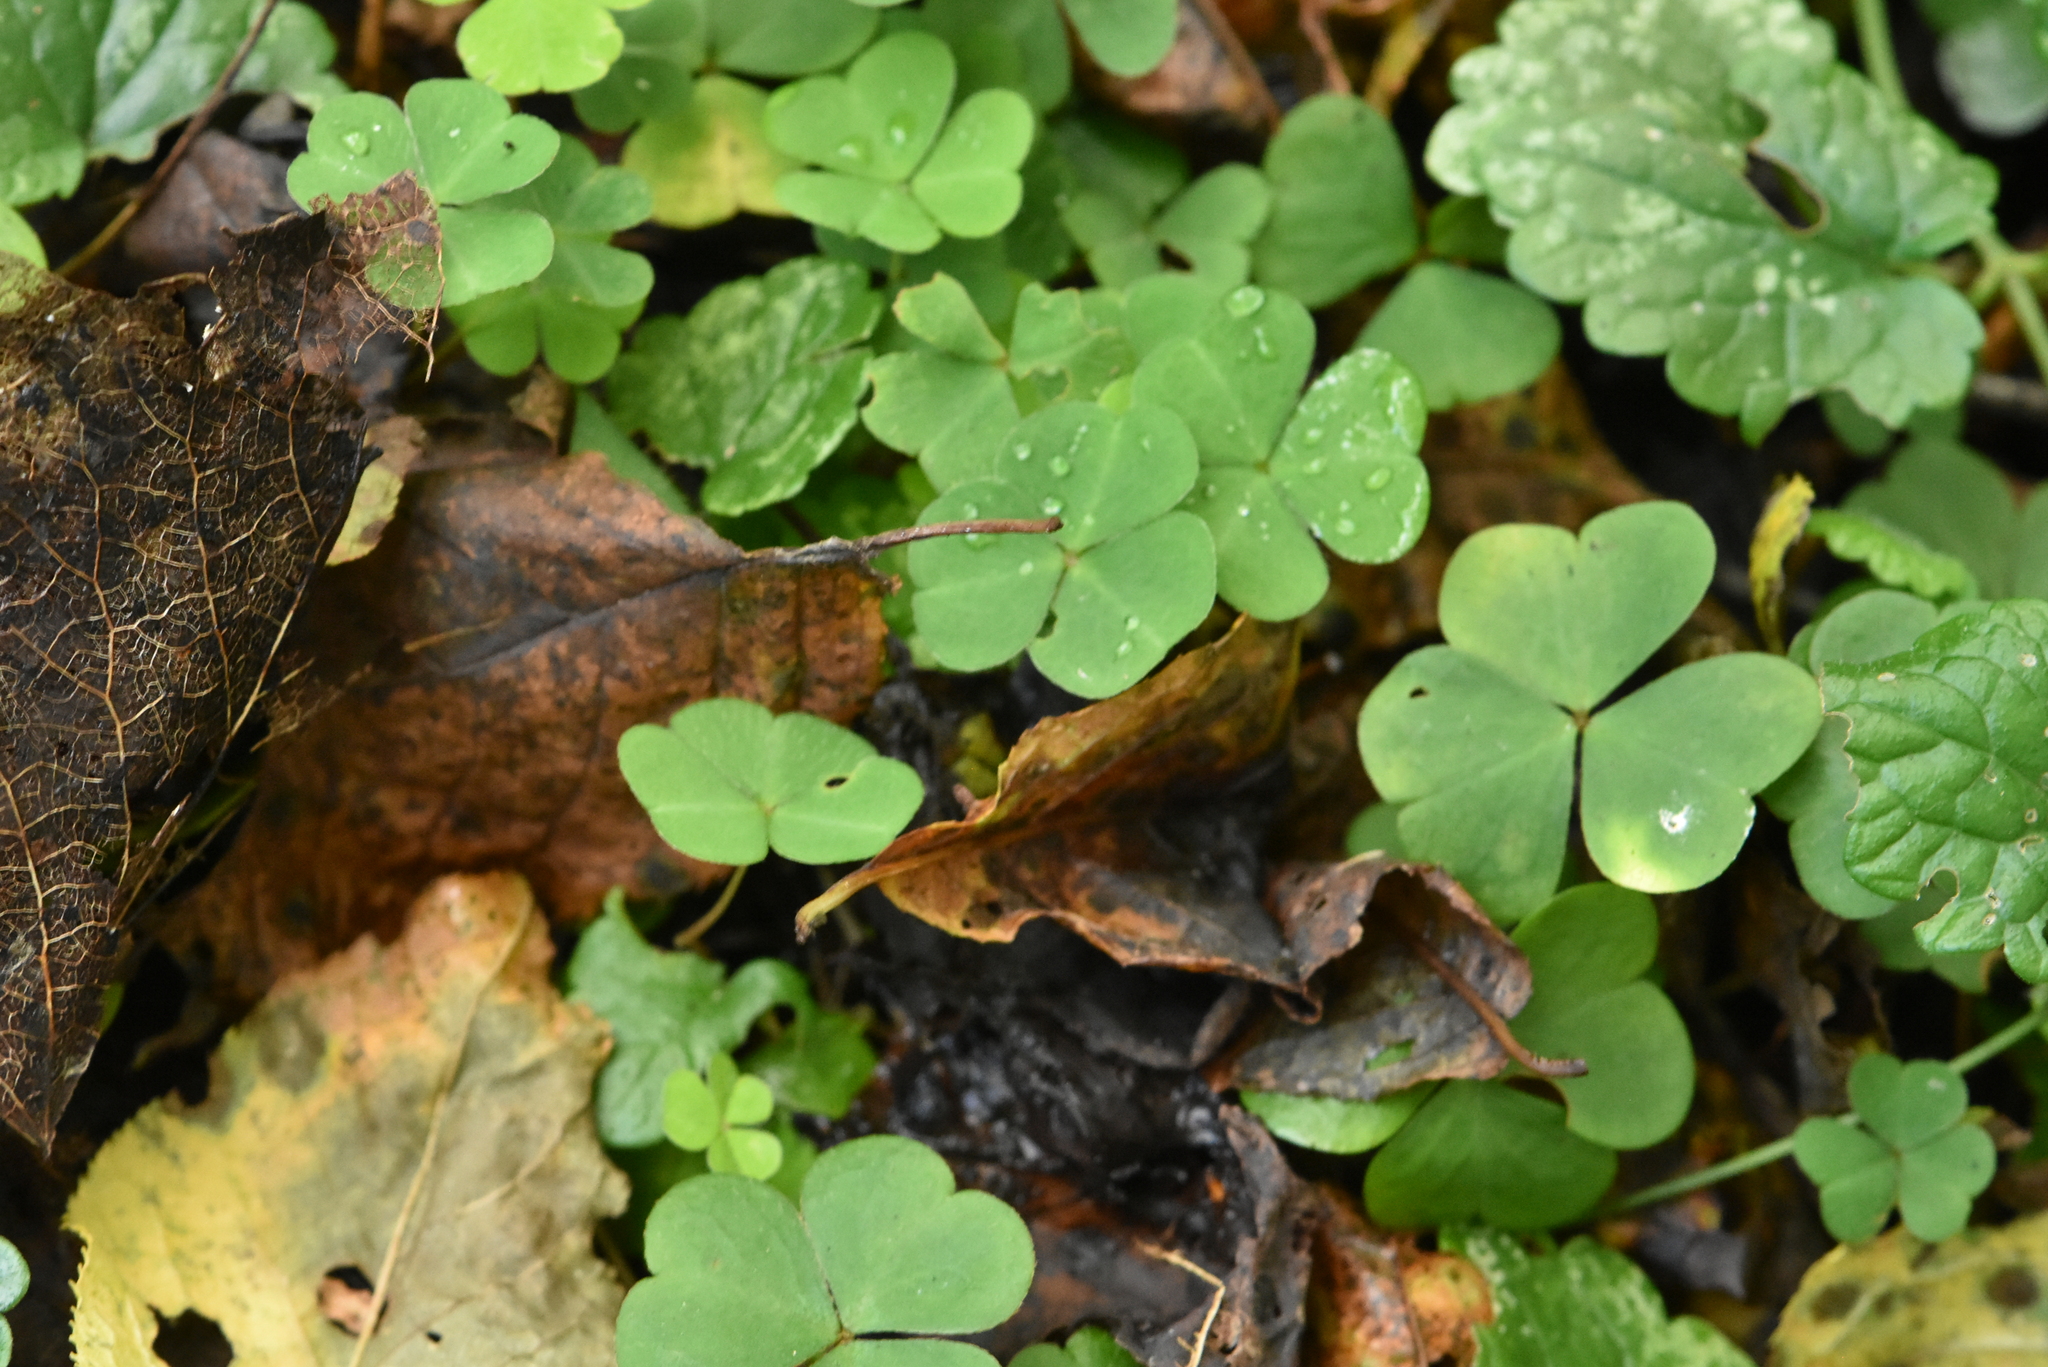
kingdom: Plantae
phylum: Tracheophyta
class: Magnoliopsida
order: Oxalidales
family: Oxalidaceae
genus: Oxalis
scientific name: Oxalis acetosella
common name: Wood-sorrel
